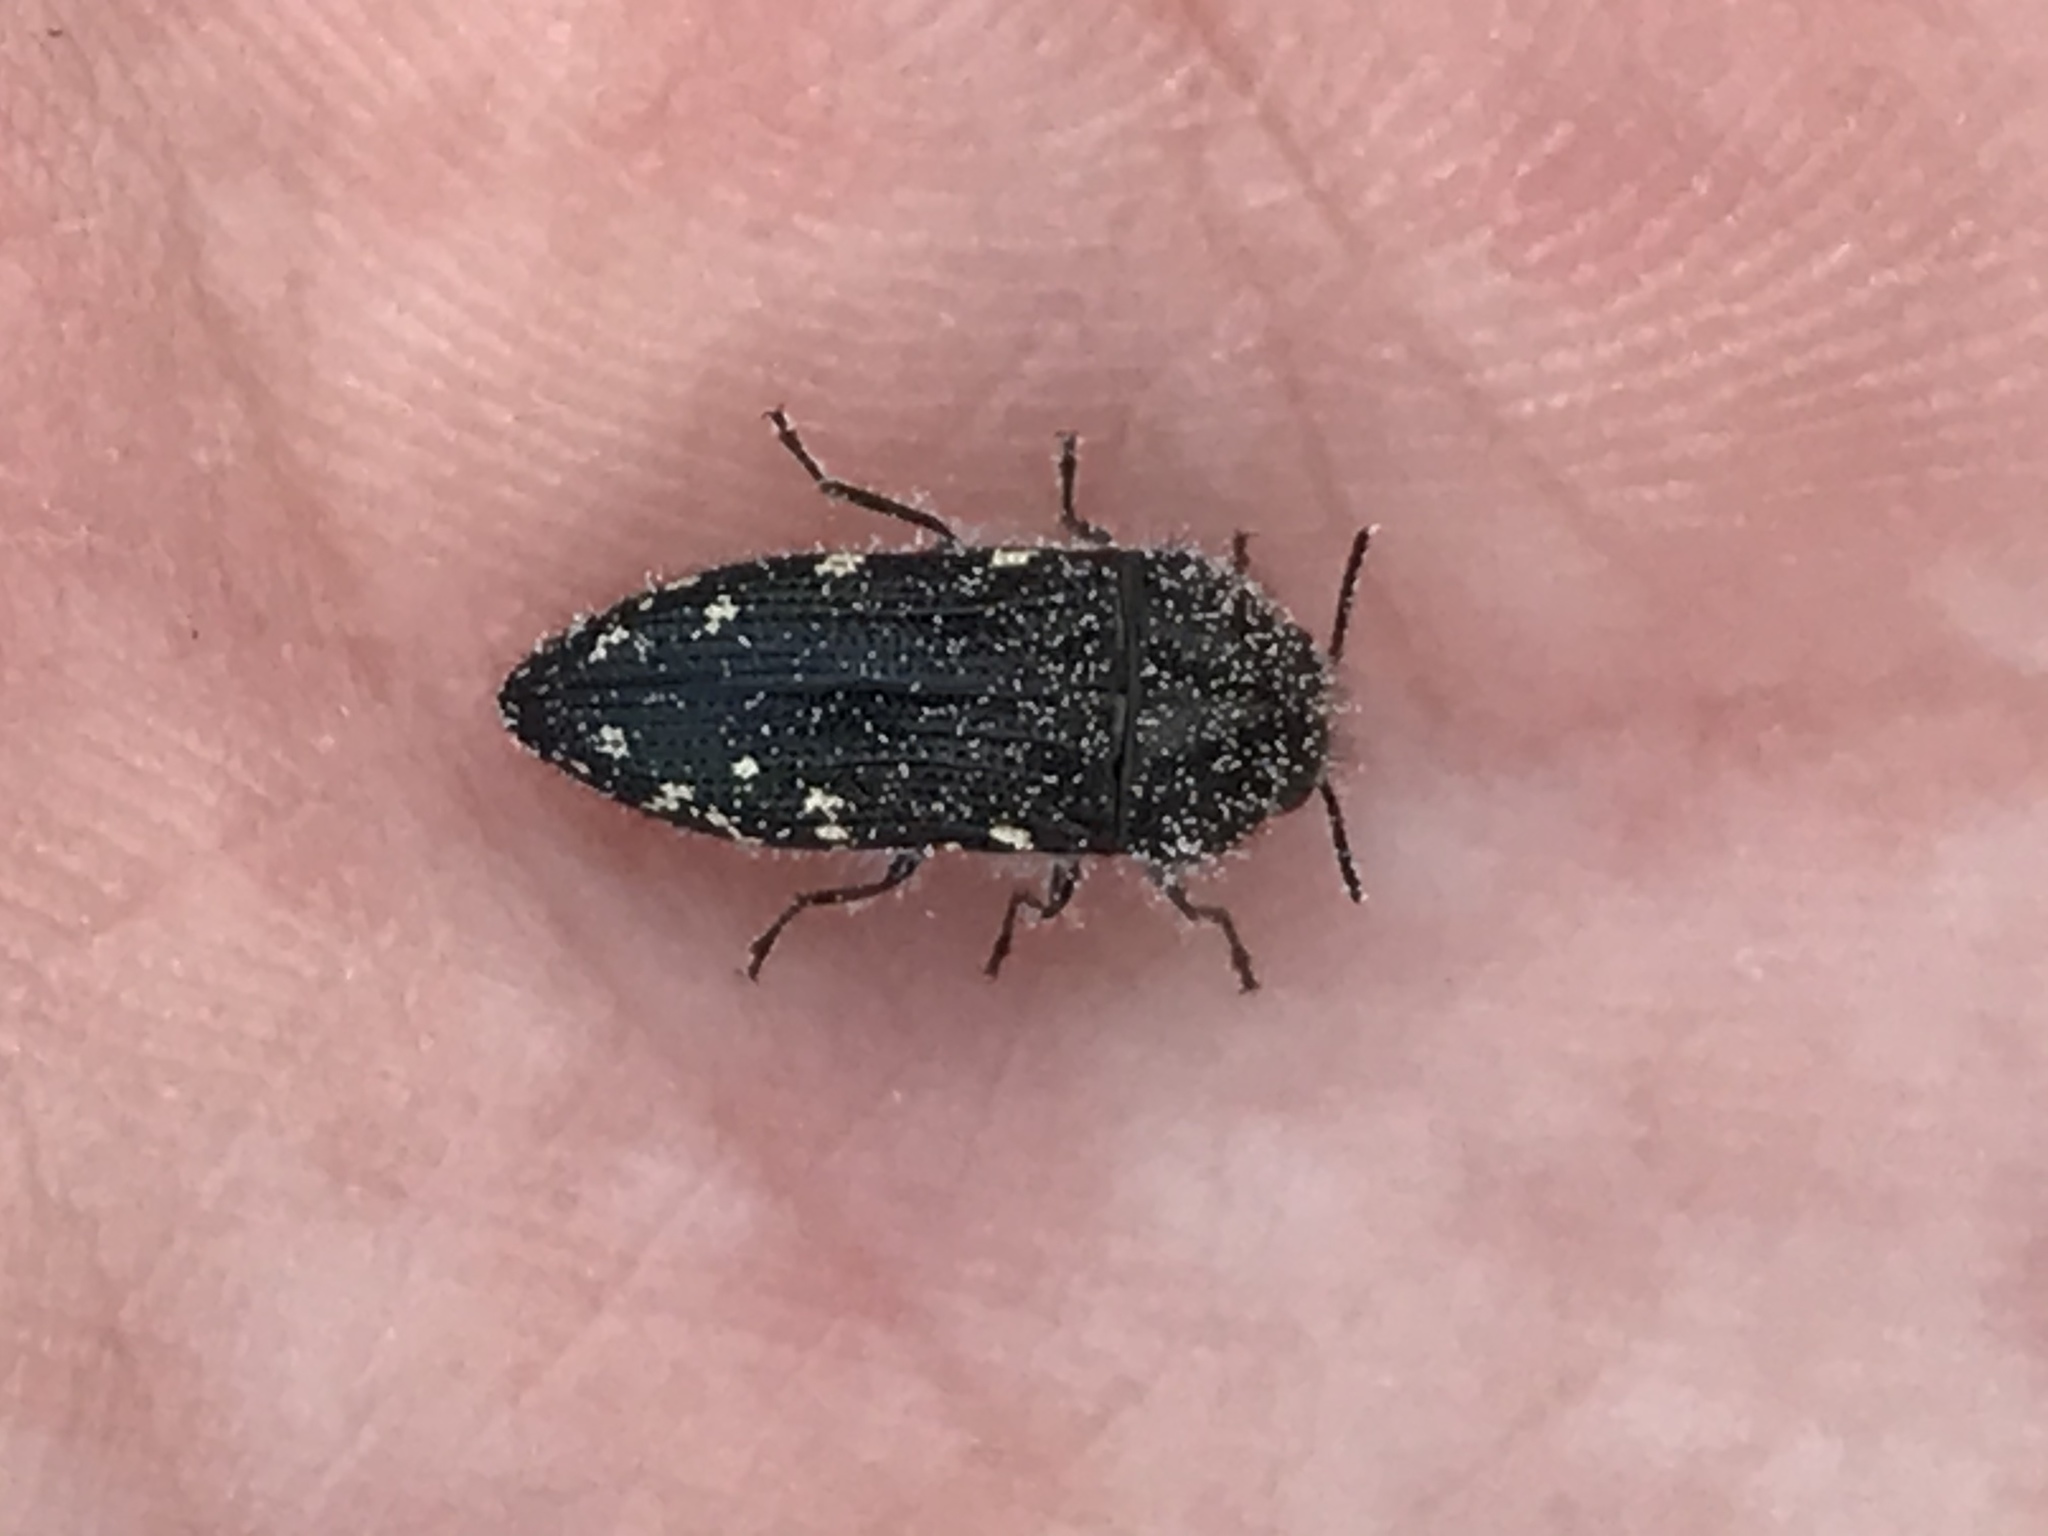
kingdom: Animalia
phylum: Arthropoda
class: Insecta
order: Coleoptera
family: Buprestidae
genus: Acmaeodera
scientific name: Acmaeodera ornatoides
